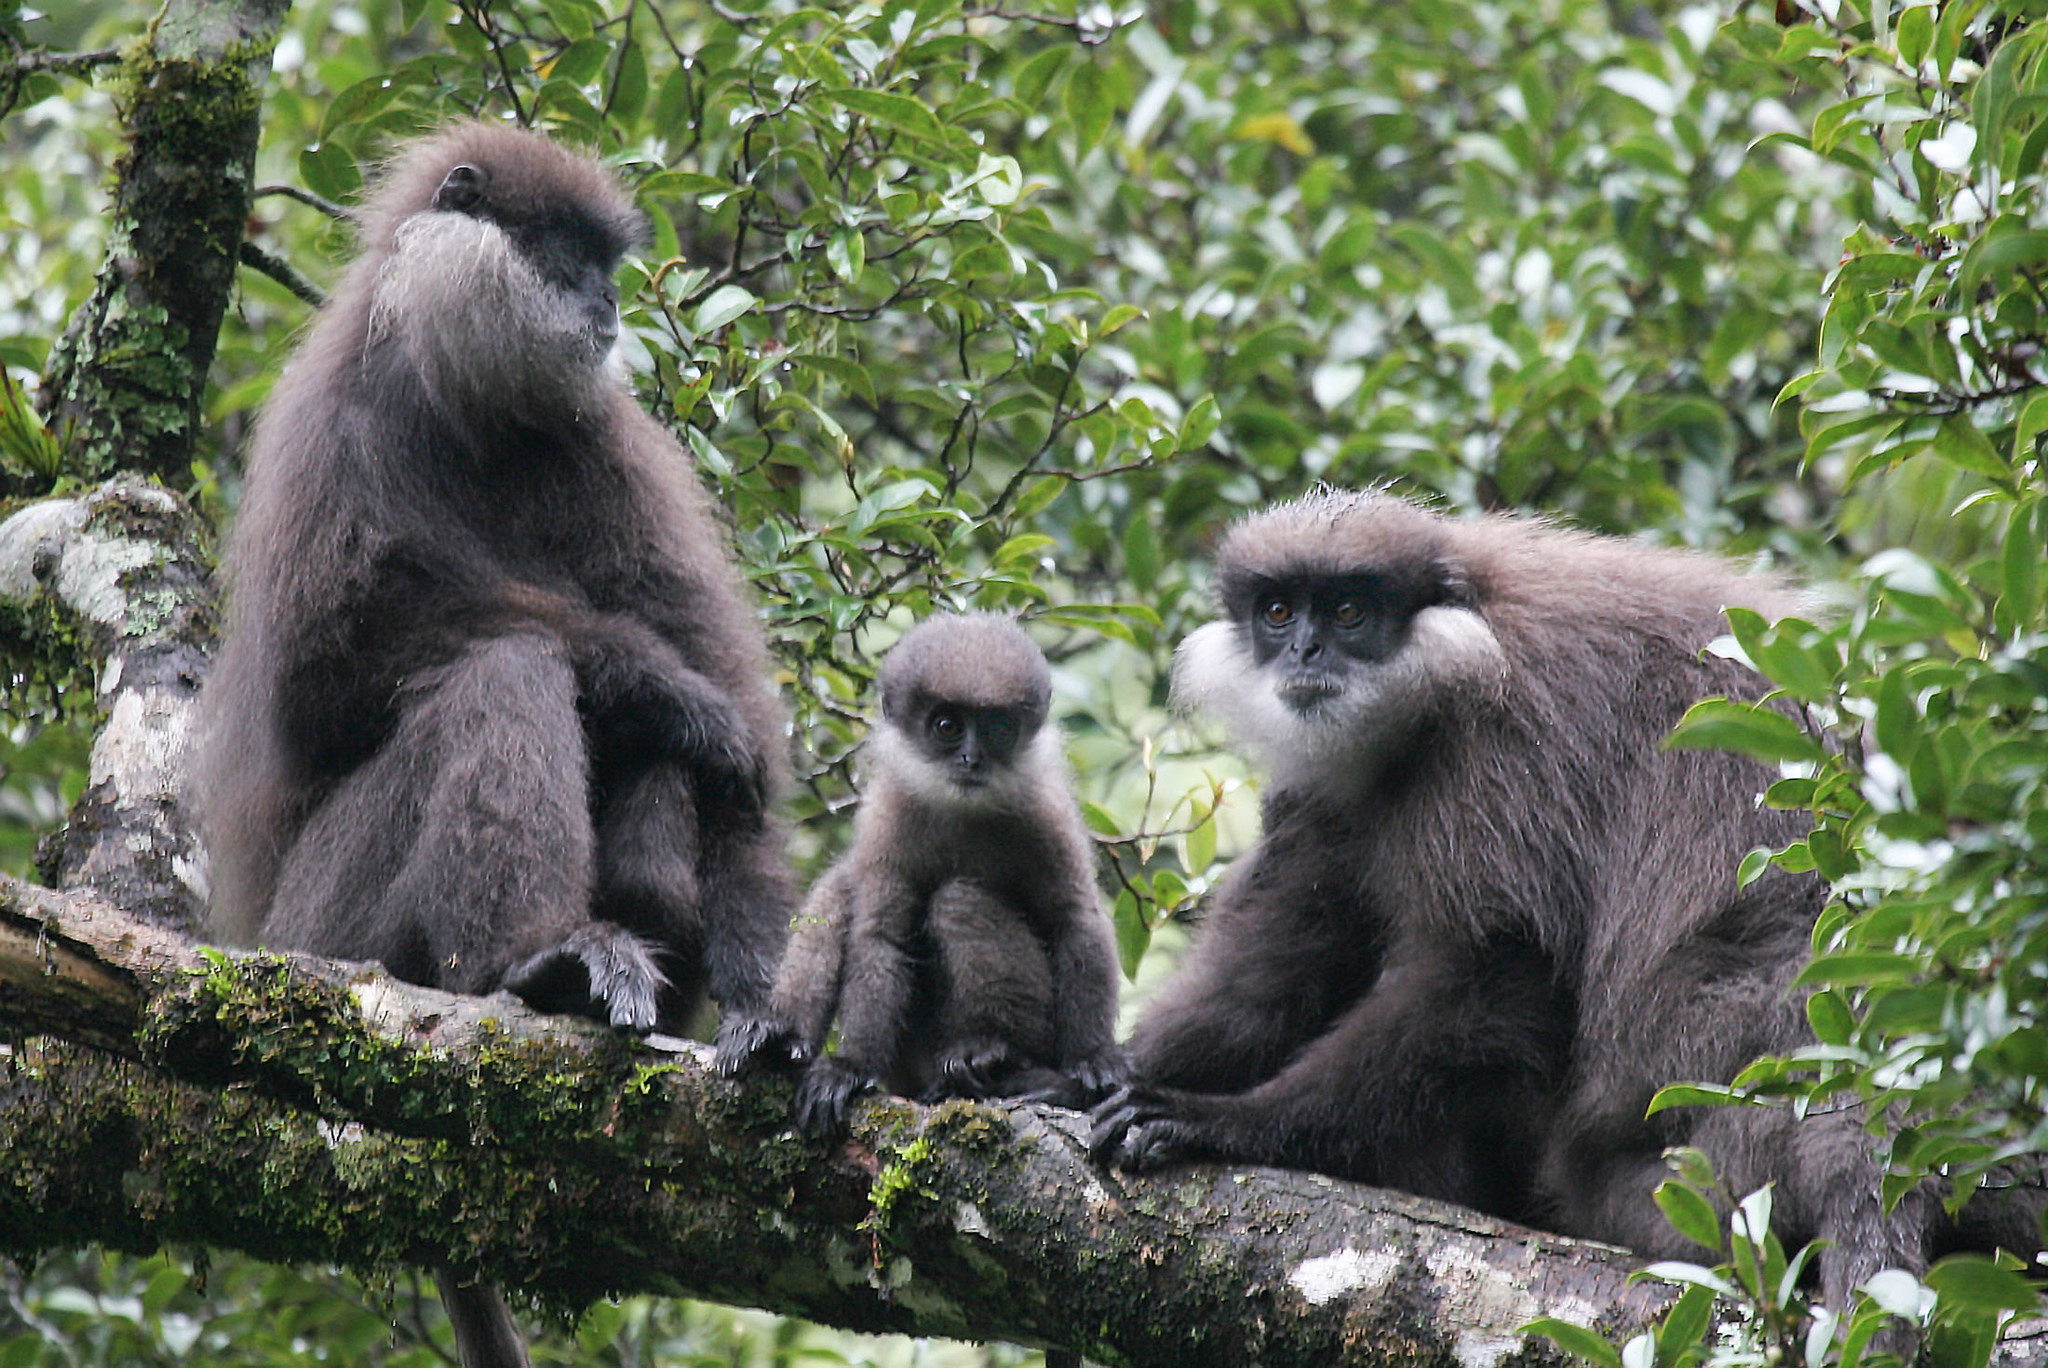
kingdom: Animalia
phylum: Chordata
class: Mammalia
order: Primates
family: Cercopithecidae
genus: Semnopithecus
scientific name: Semnopithecus vetulus
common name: Purple-faced langur
